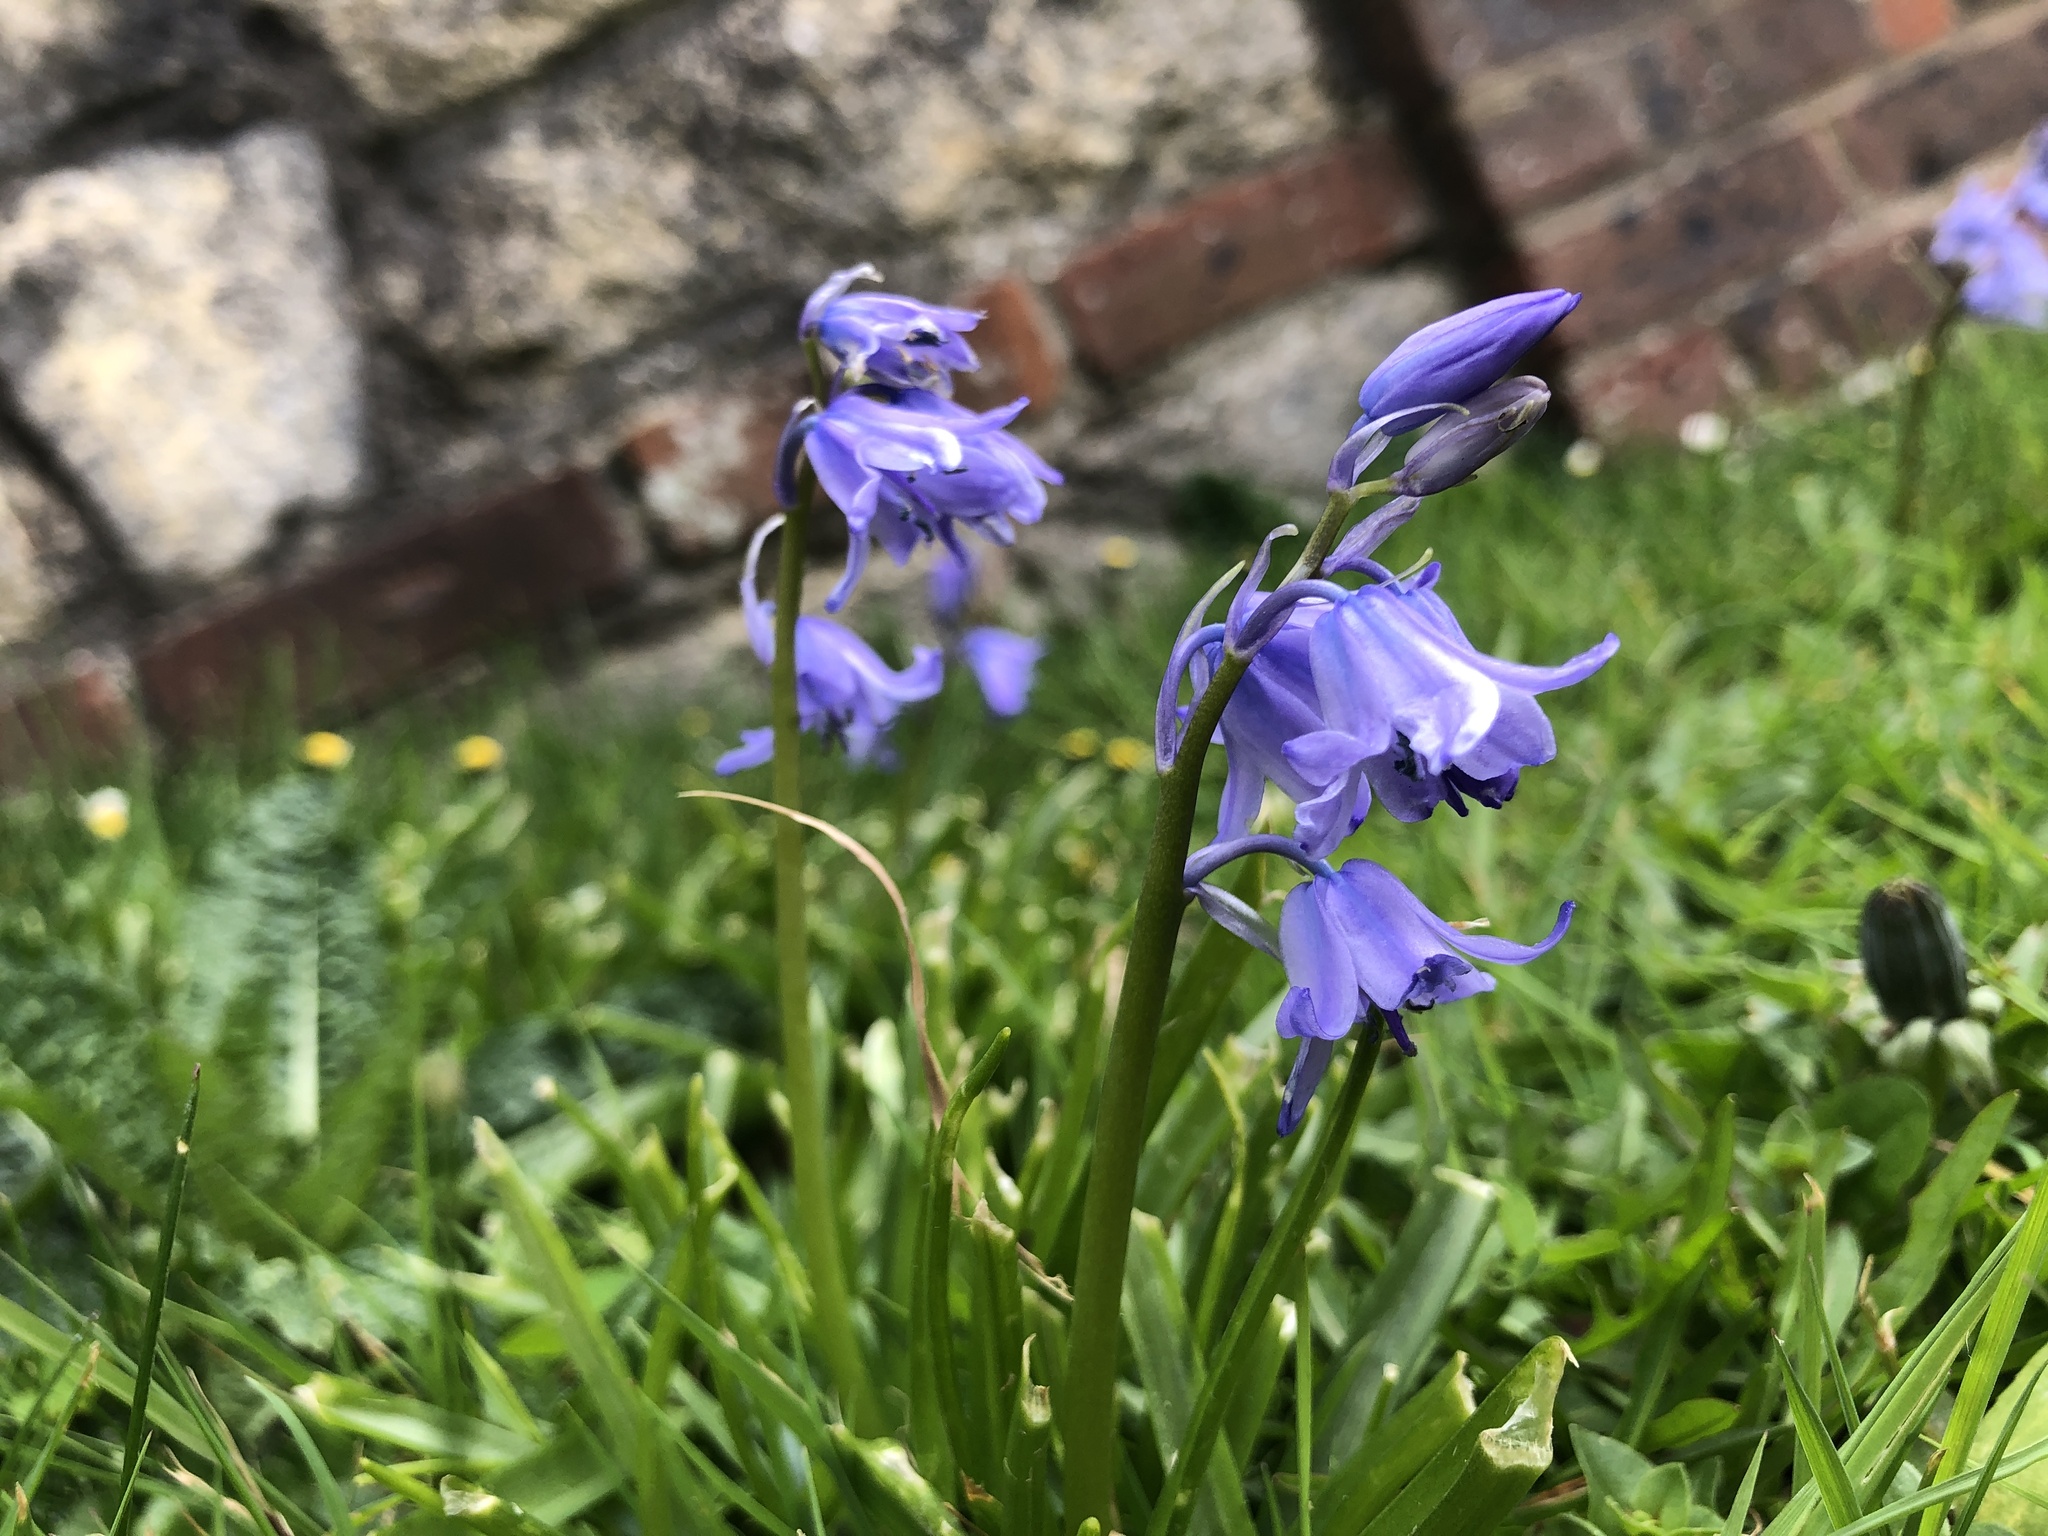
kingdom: Plantae
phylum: Tracheophyta
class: Liliopsida
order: Asparagales
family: Asparagaceae
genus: Hyacinthoides
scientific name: Hyacinthoides hispanica
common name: Spanish bluebell
